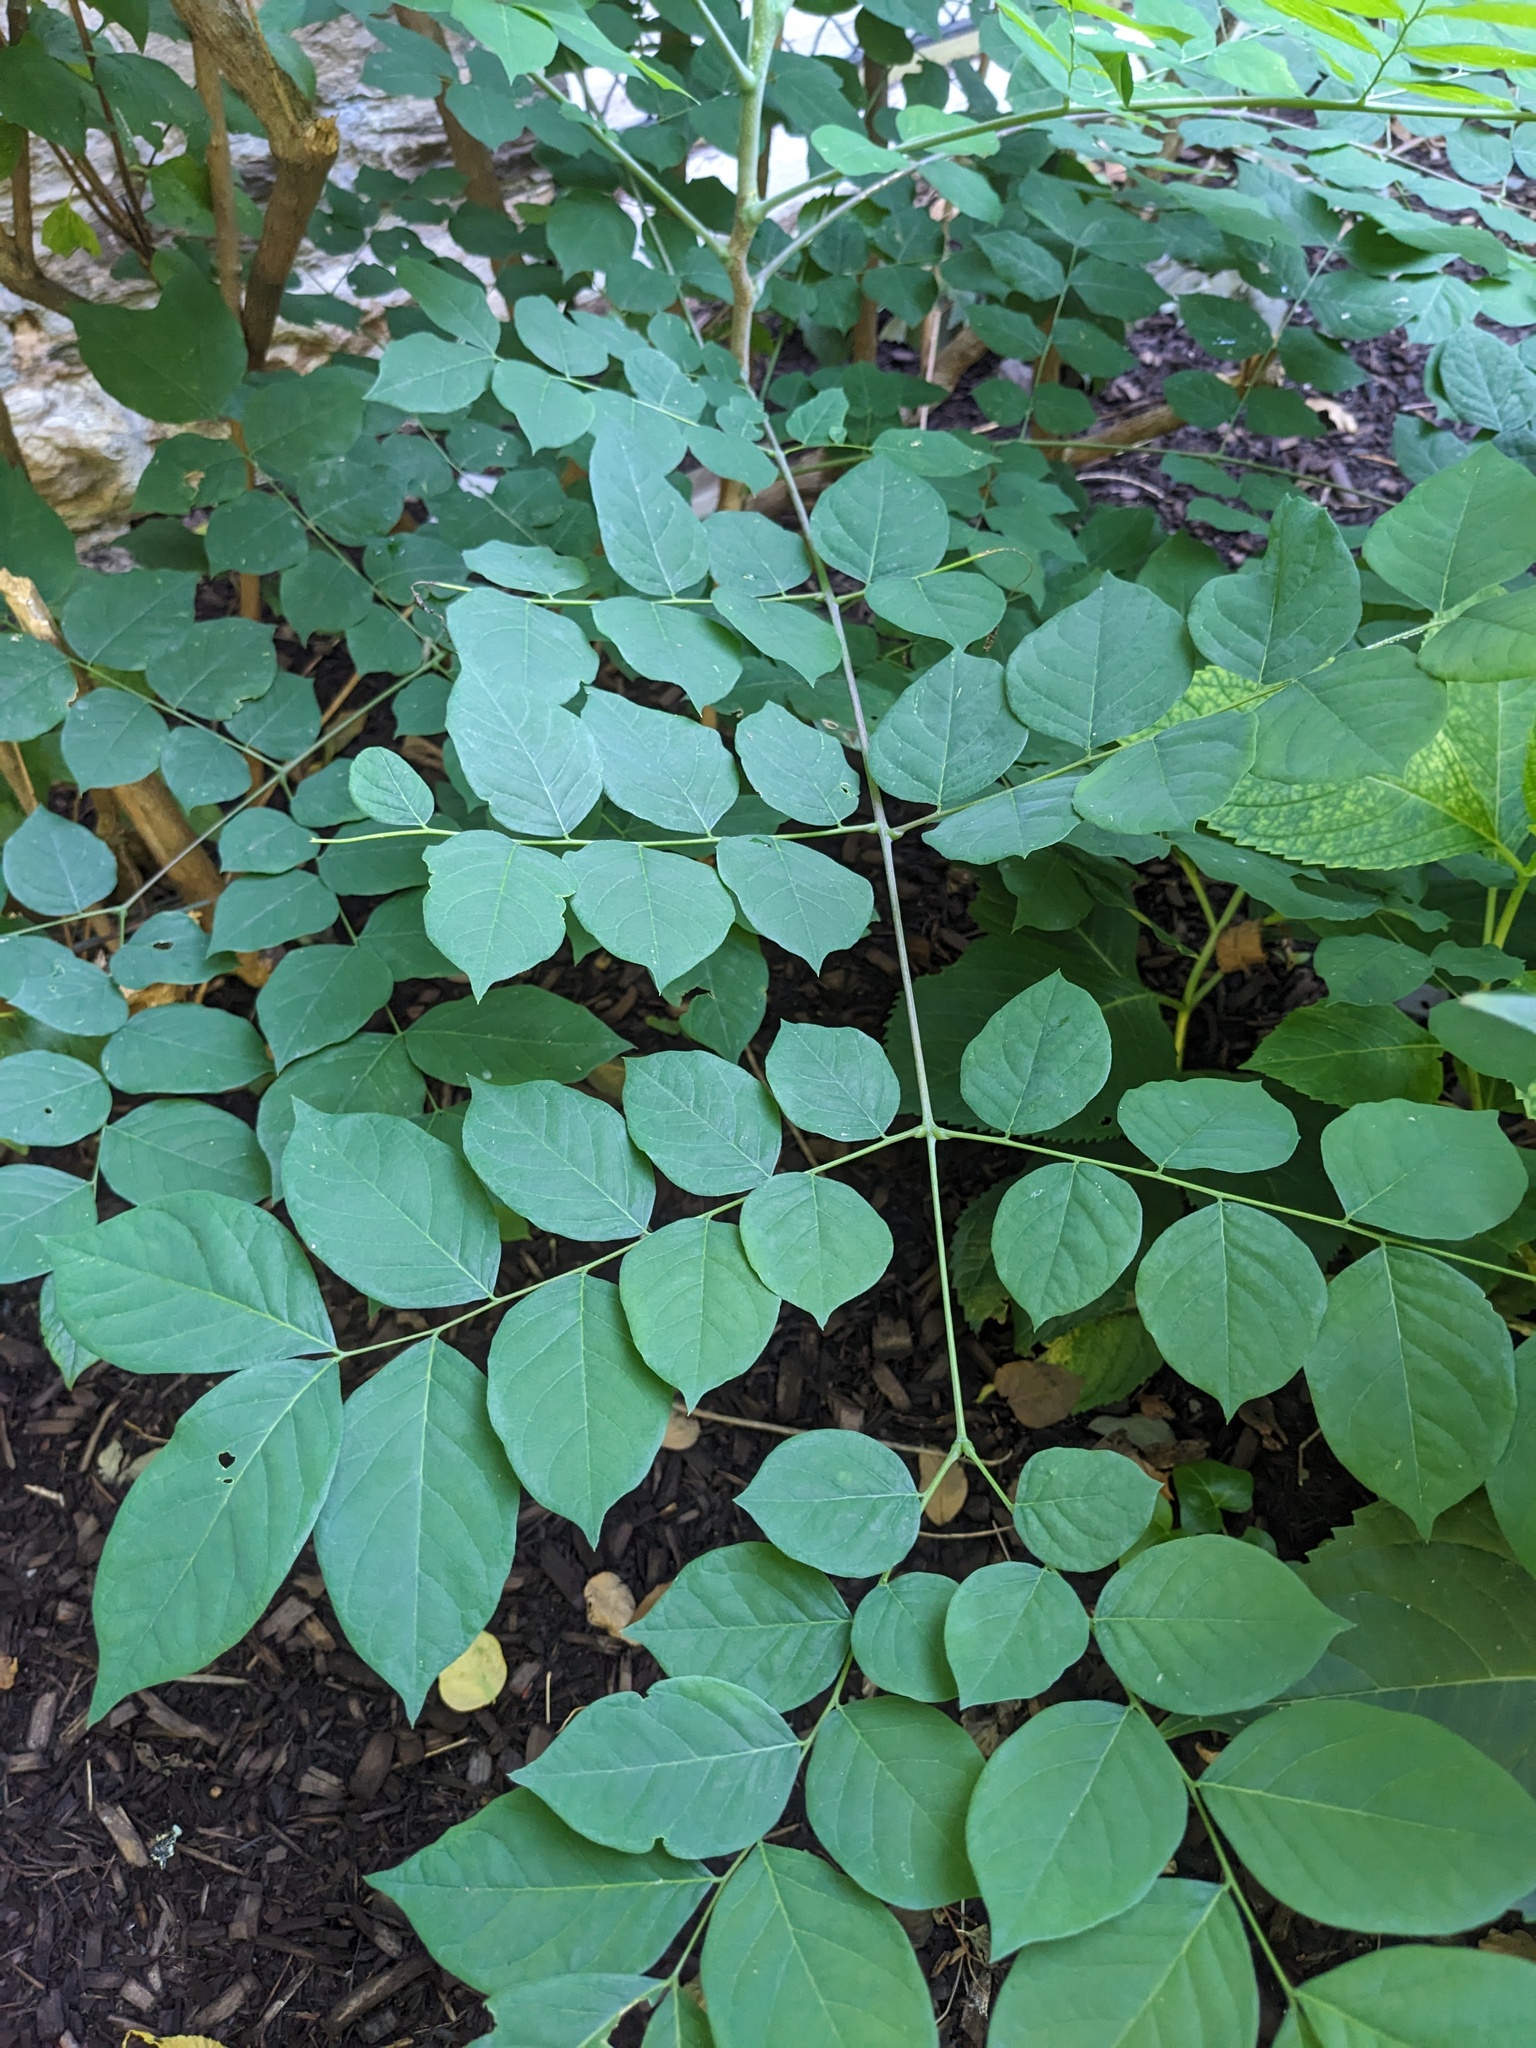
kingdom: Plantae
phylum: Tracheophyta
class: Magnoliopsida
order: Fabales
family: Fabaceae
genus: Gymnocladus
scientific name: Gymnocladus dioicus
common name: Kentucky coffee-tree
